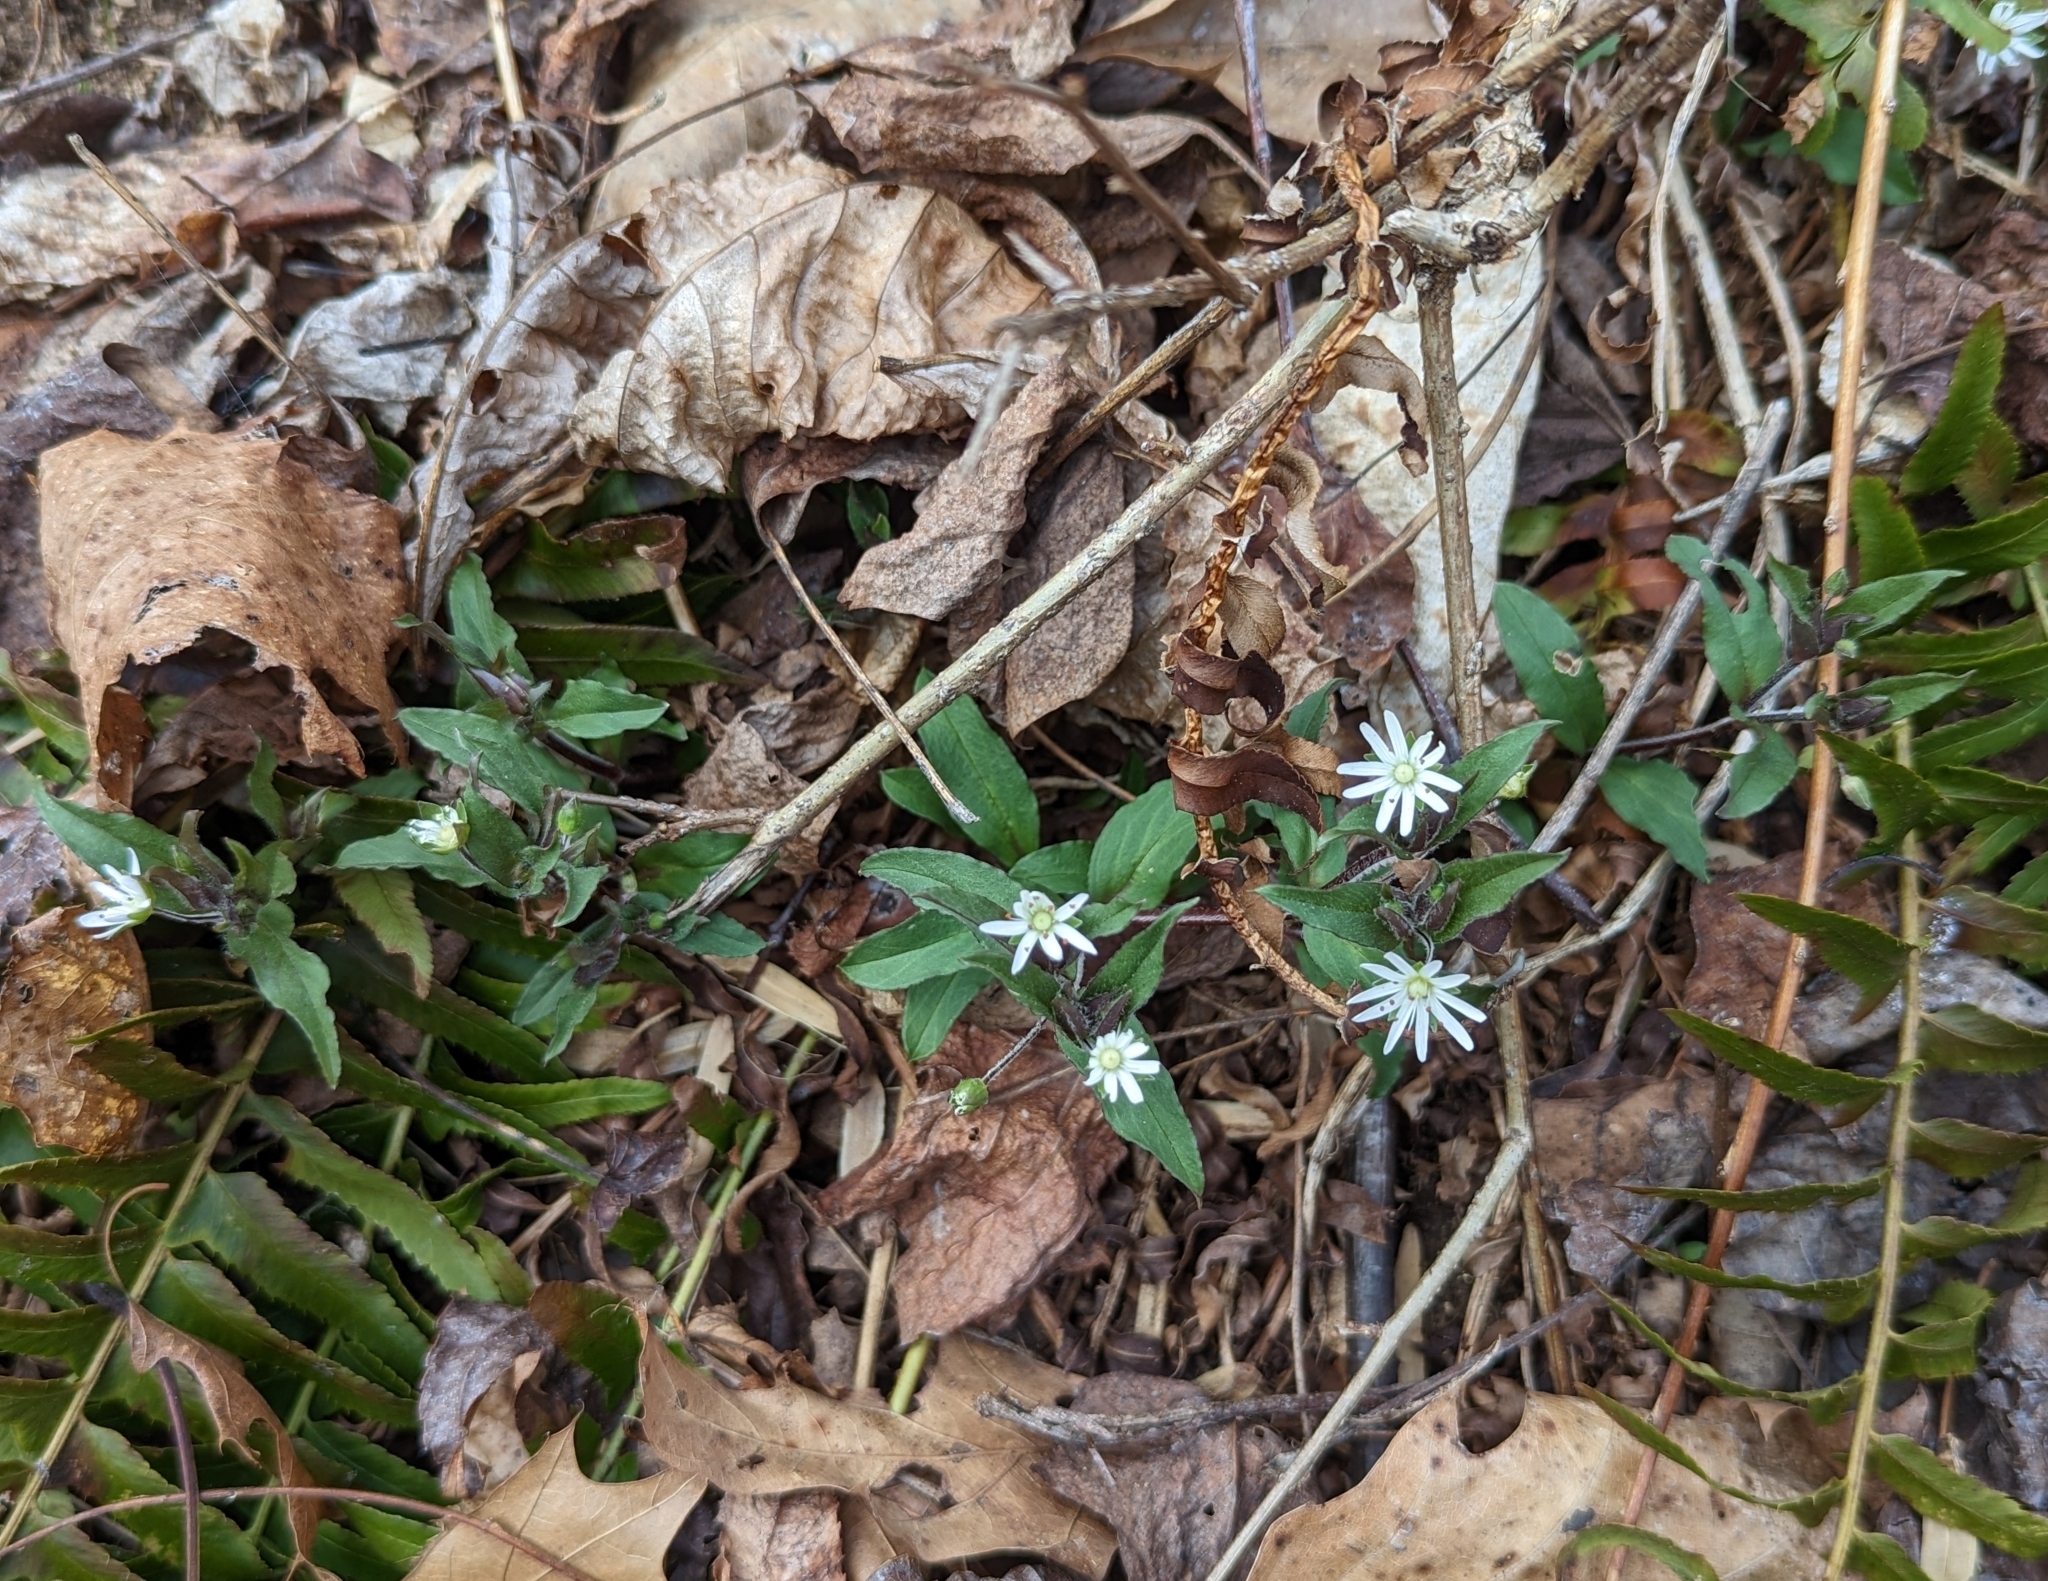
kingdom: Plantae
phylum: Tracheophyta
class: Magnoliopsida
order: Caryophyllales
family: Caryophyllaceae
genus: Stellaria
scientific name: Stellaria pubera
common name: Star chickweed
